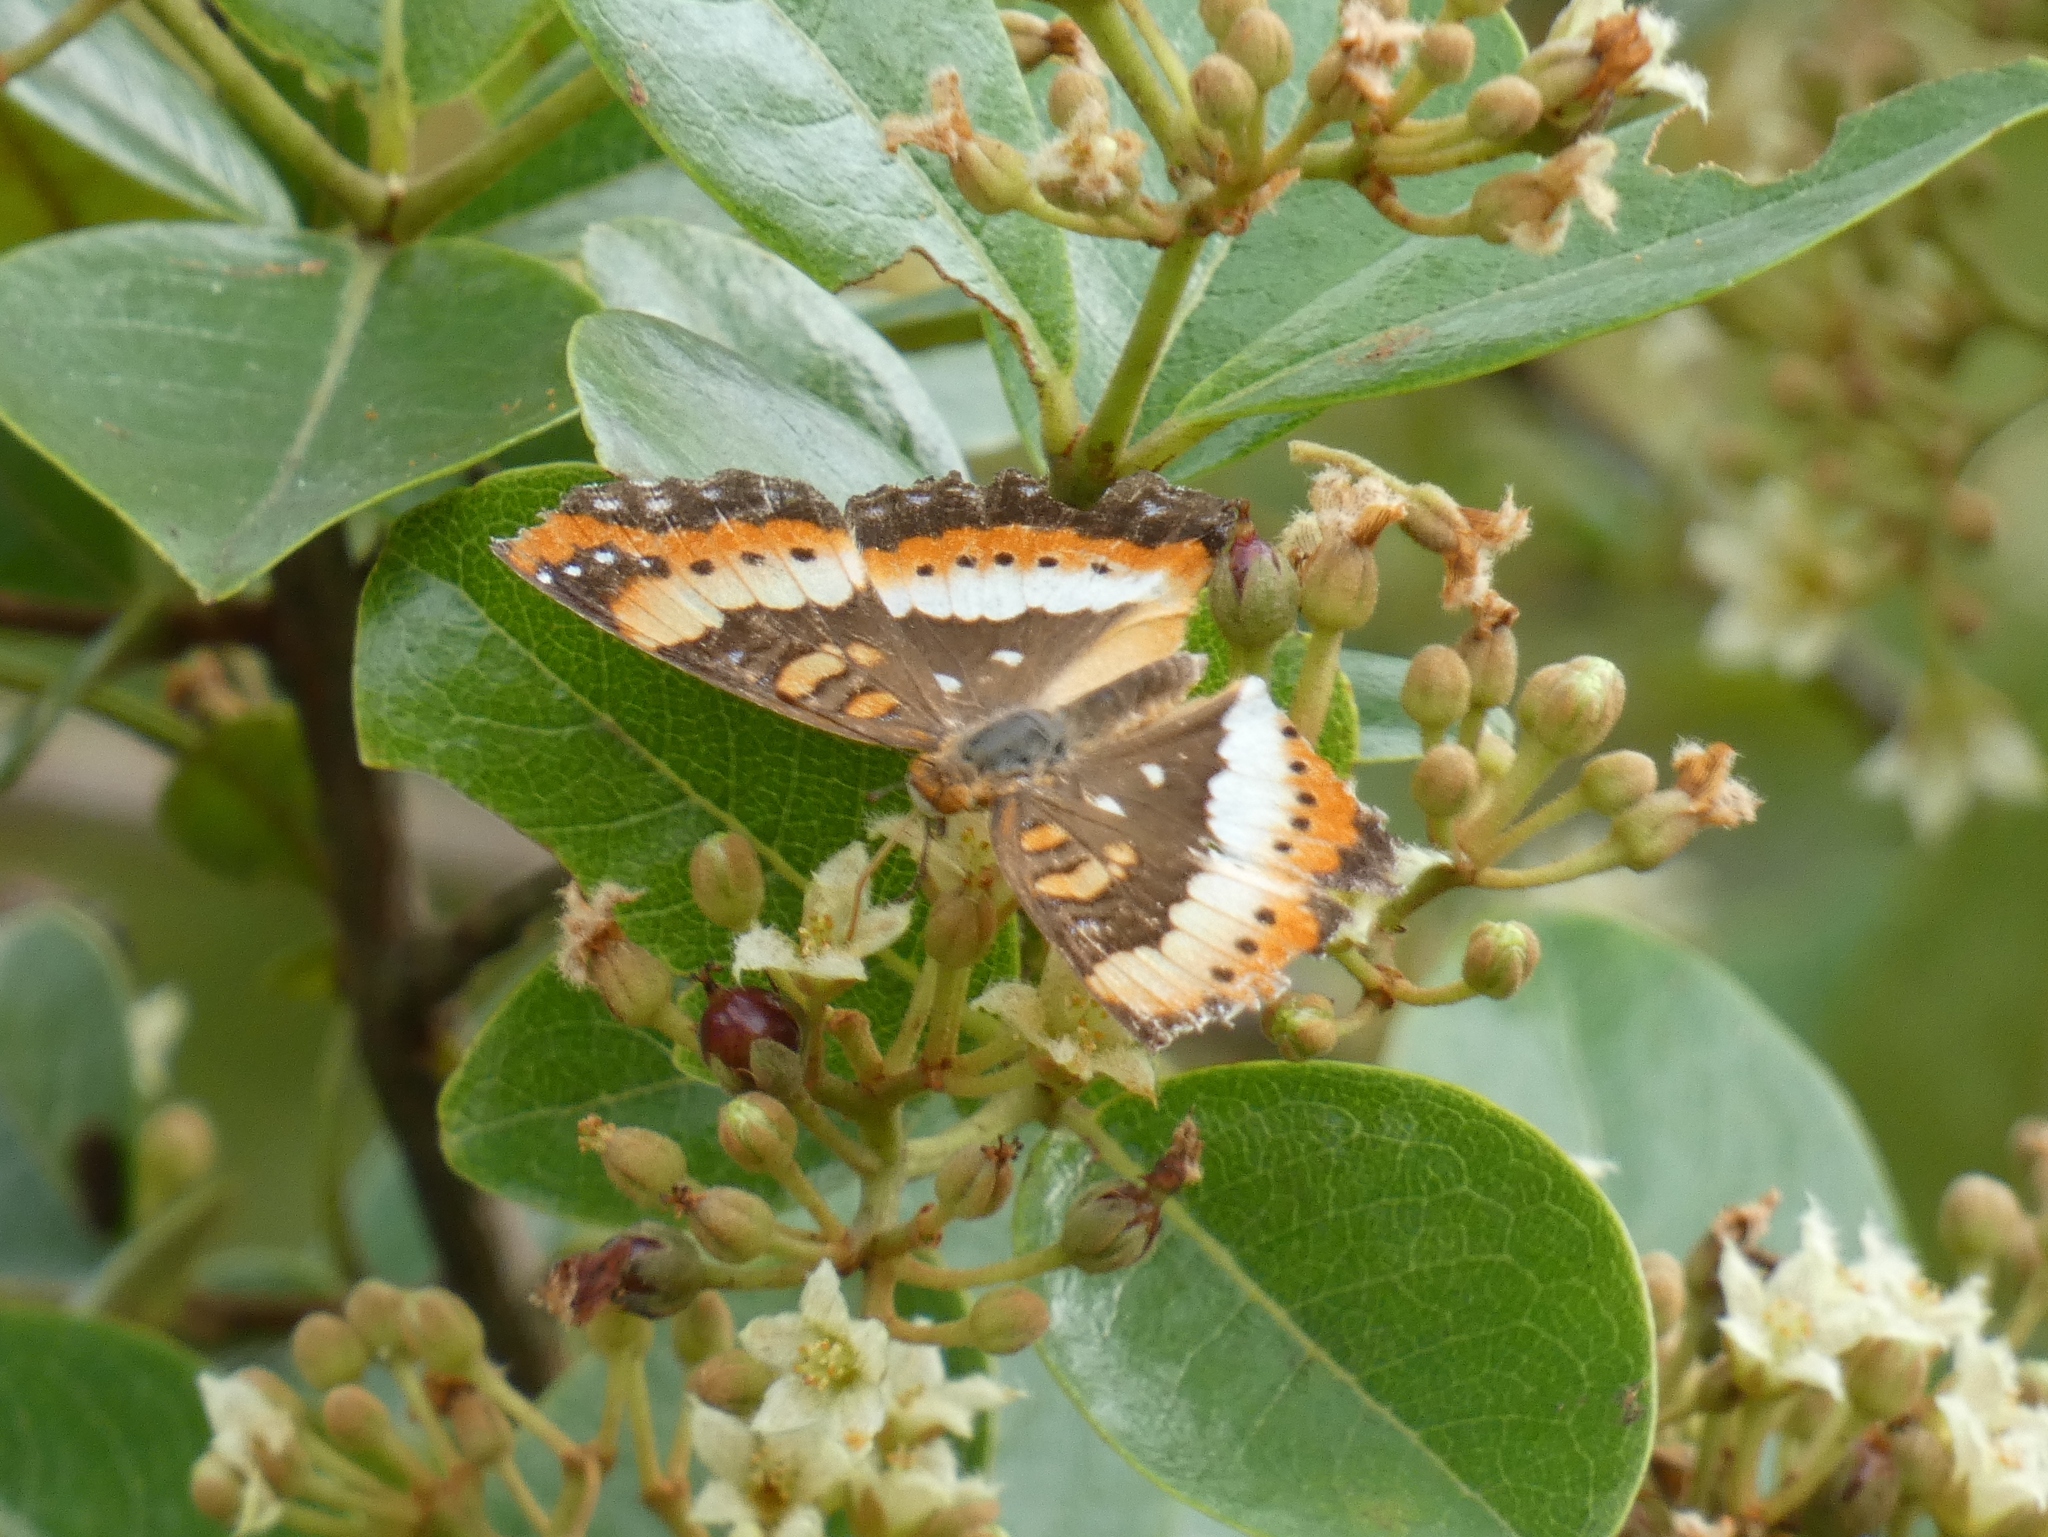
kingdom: Animalia
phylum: Arthropoda
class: Insecta
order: Lepidoptera
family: Nymphalidae
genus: Precis
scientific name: Precis ceryne
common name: Marsh commodore
